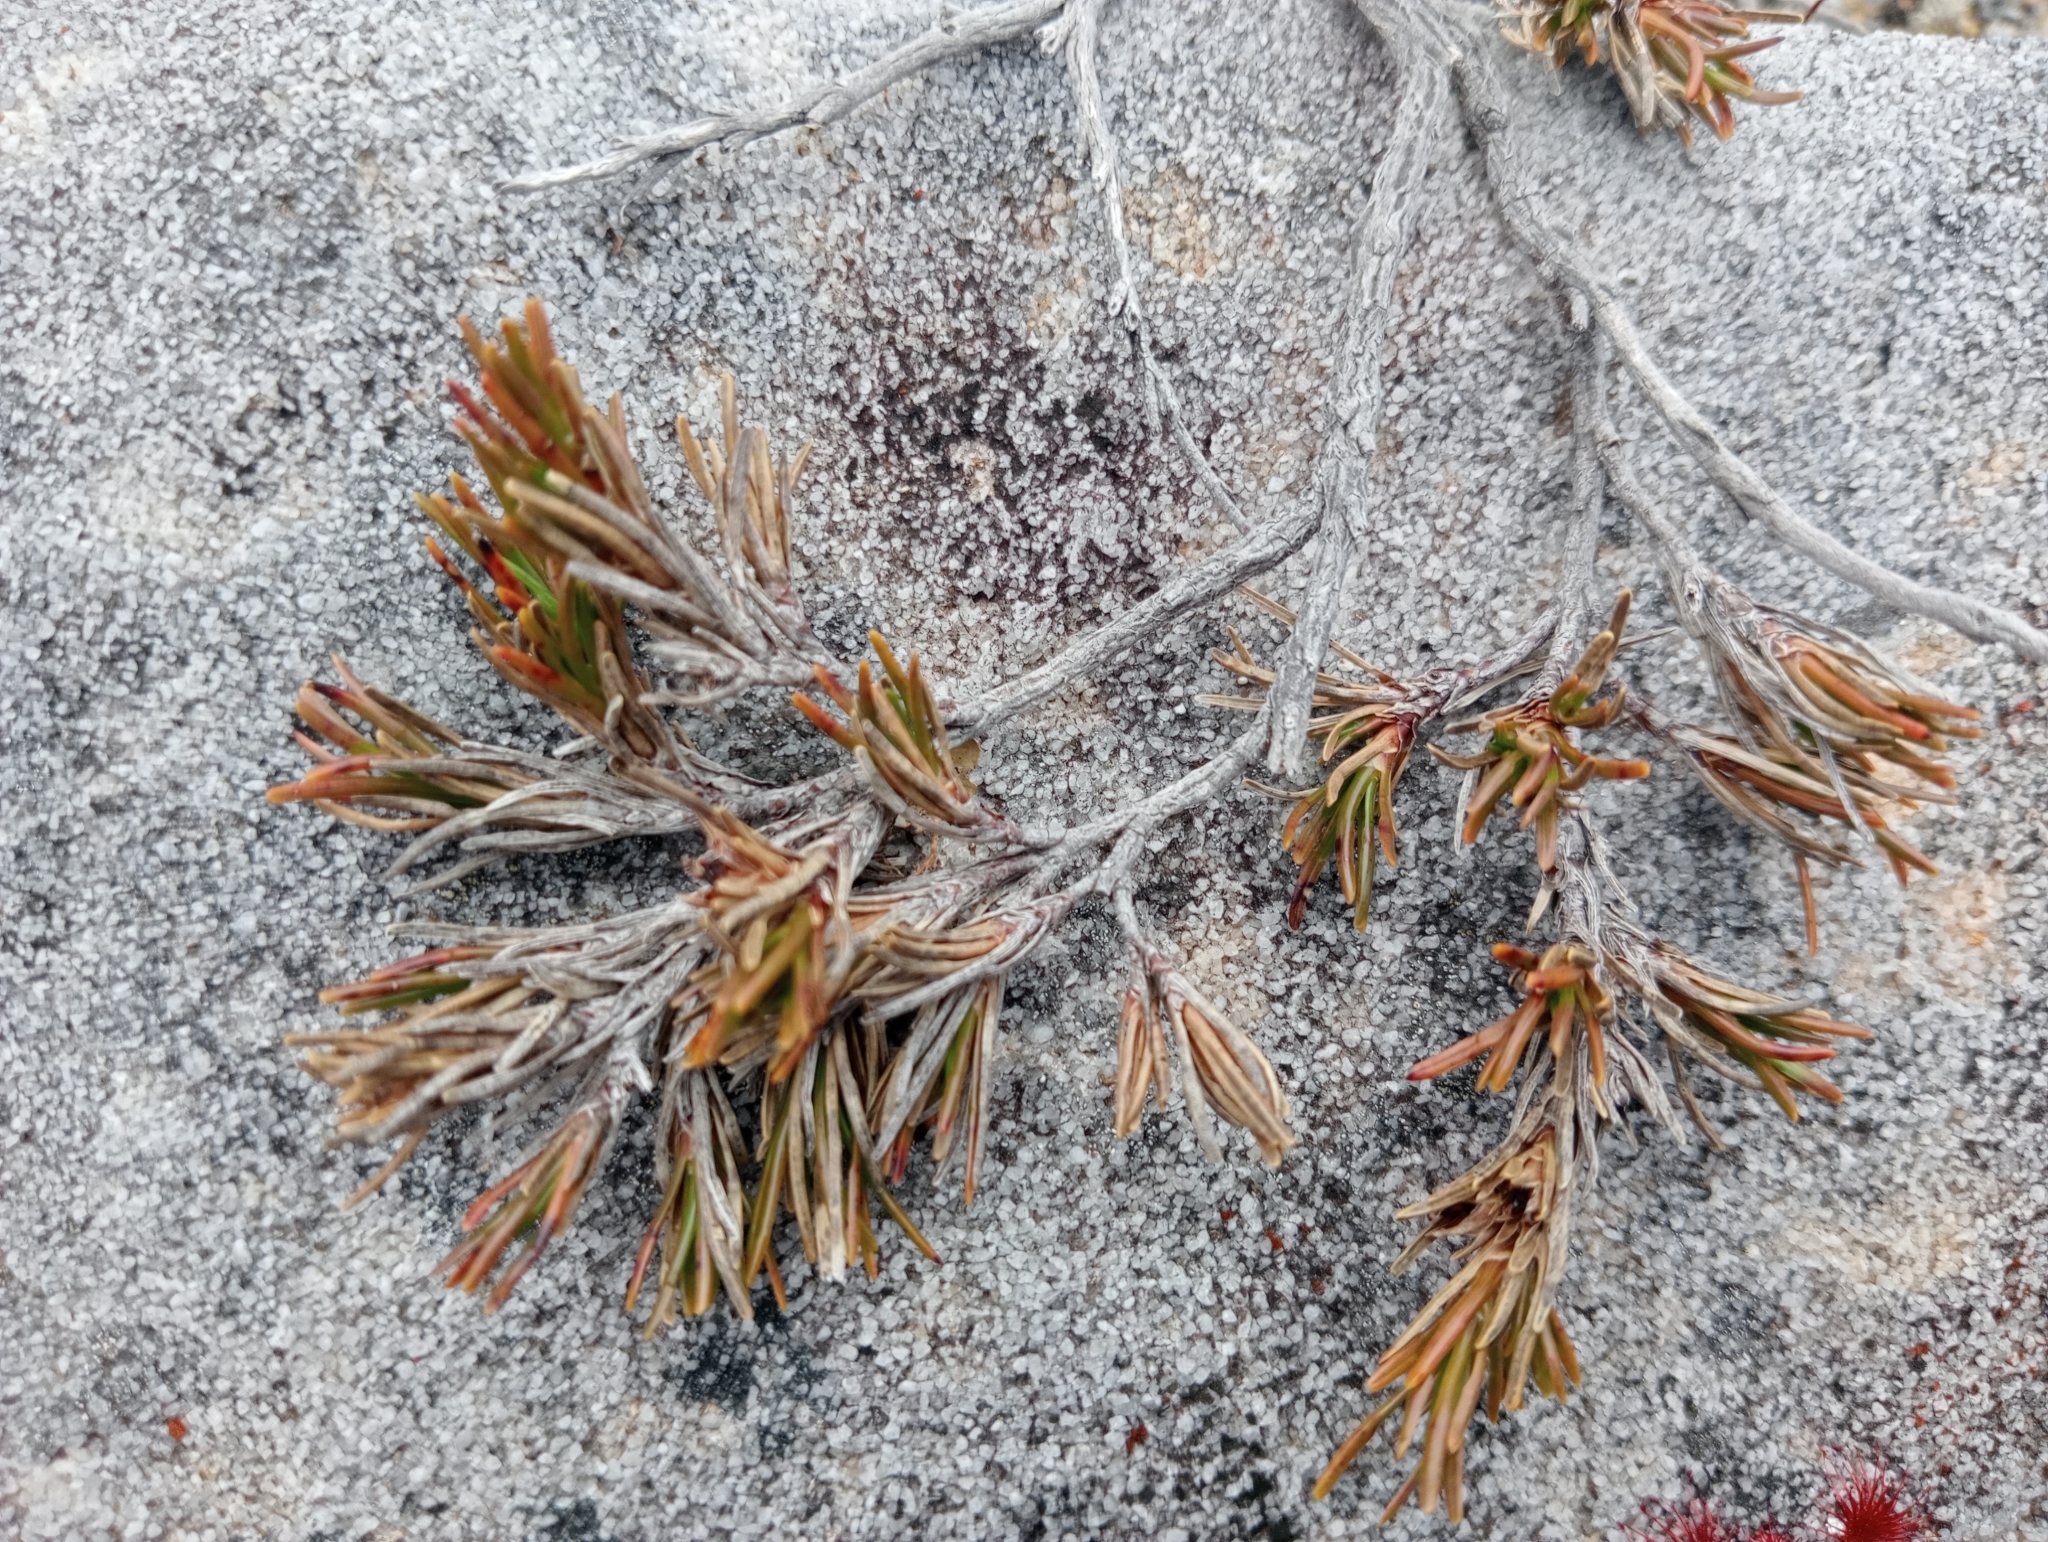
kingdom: Plantae
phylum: Tracheophyta
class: Magnoliopsida
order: Ericales
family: Ericaceae
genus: Dracophyllum
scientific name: Dracophyllum densum
